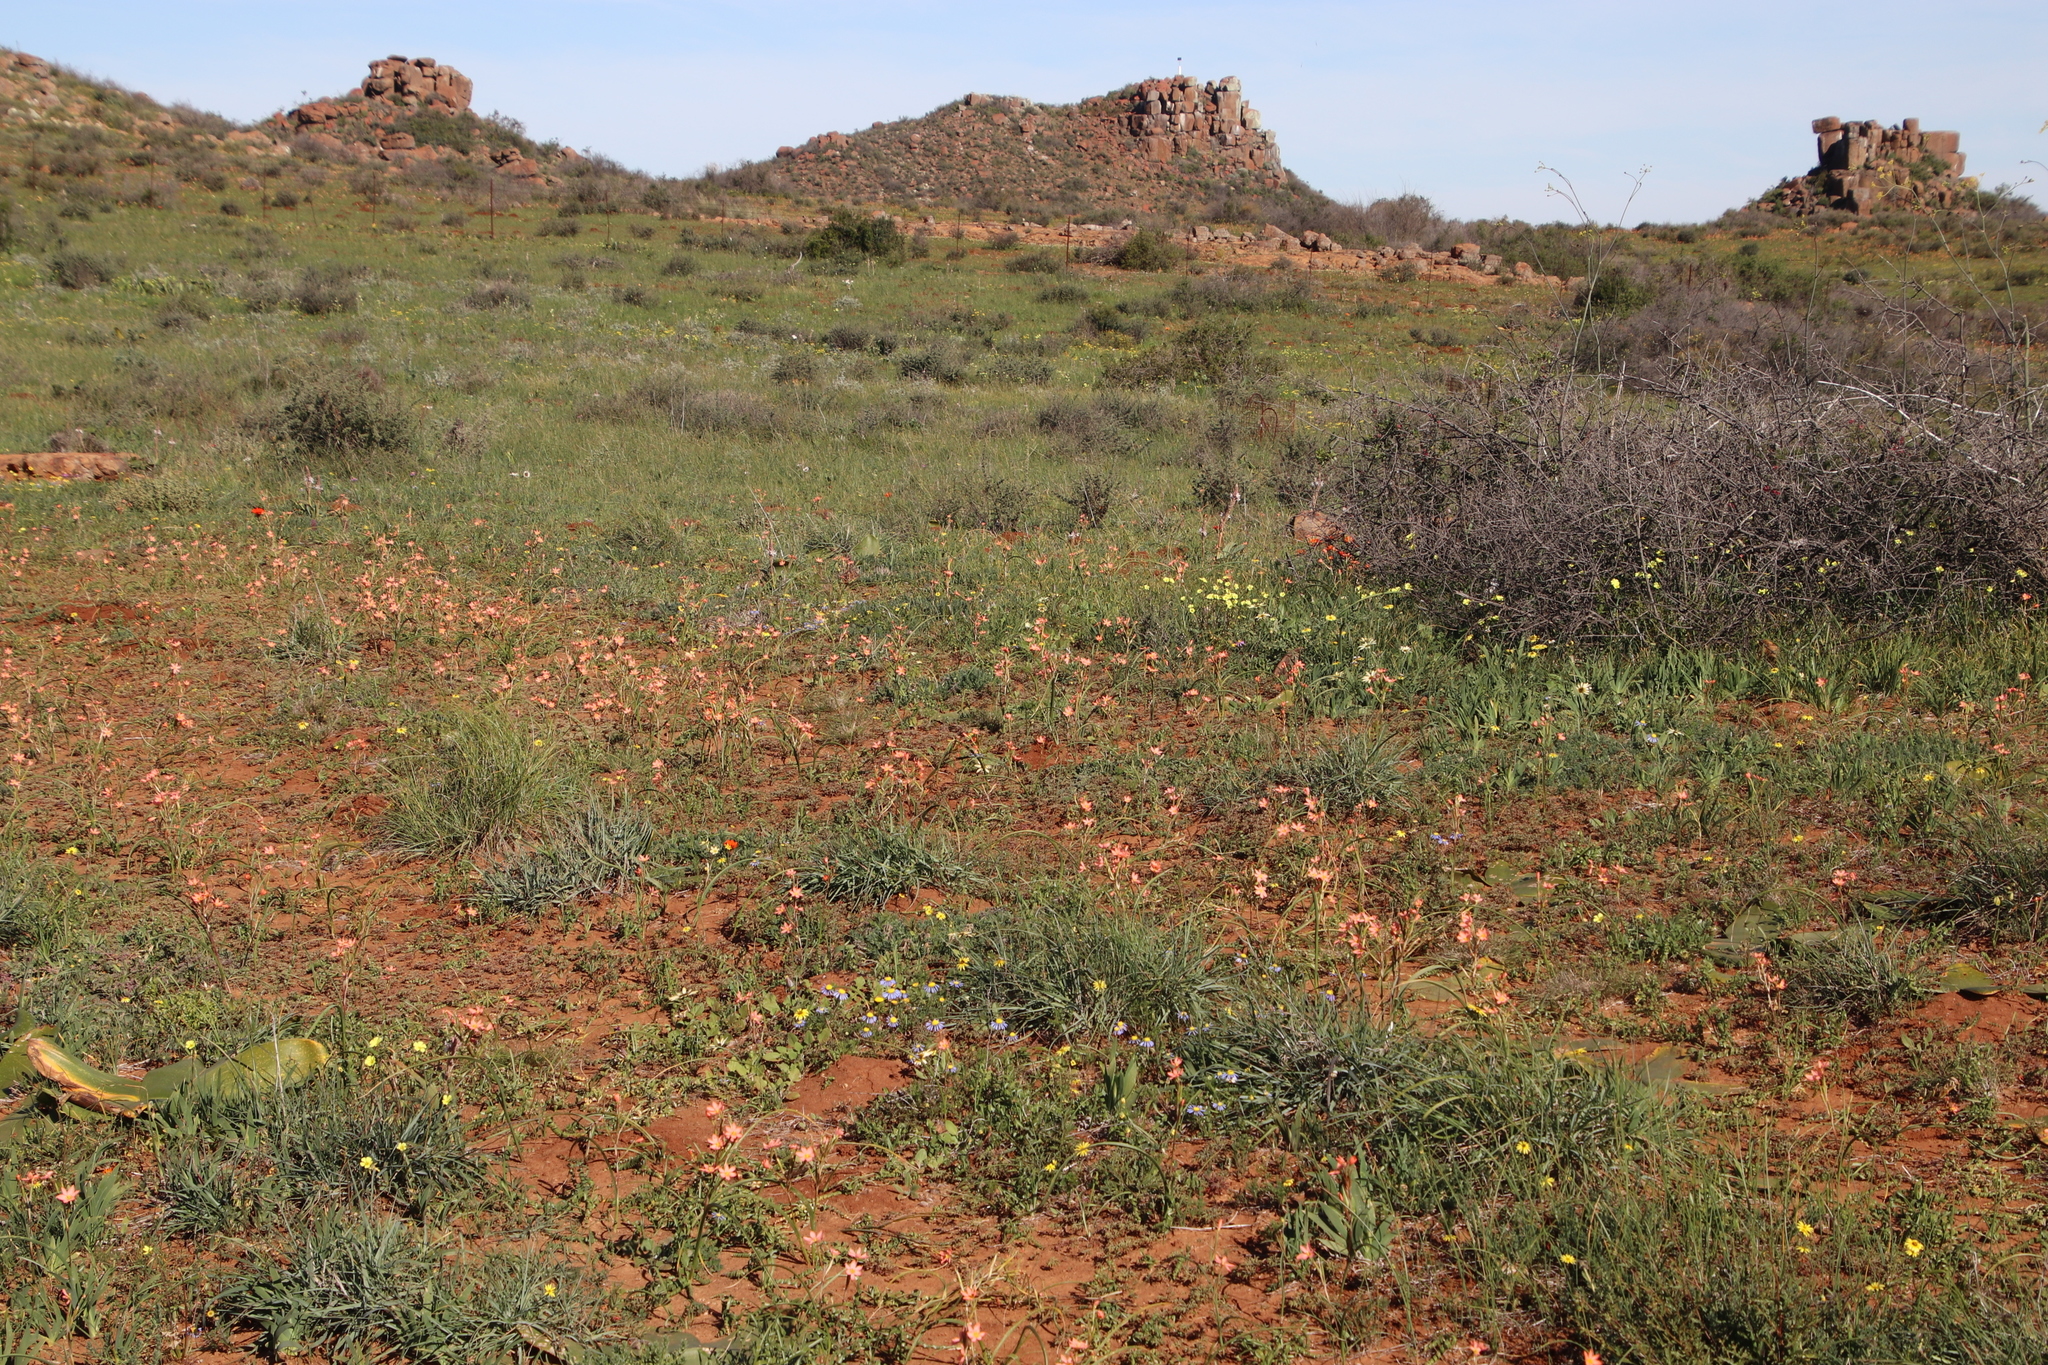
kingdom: Plantae
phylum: Tracheophyta
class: Liliopsida
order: Asparagales
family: Iridaceae
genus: Moraea
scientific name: Moraea miniata
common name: Two-leaf cape-tulip
